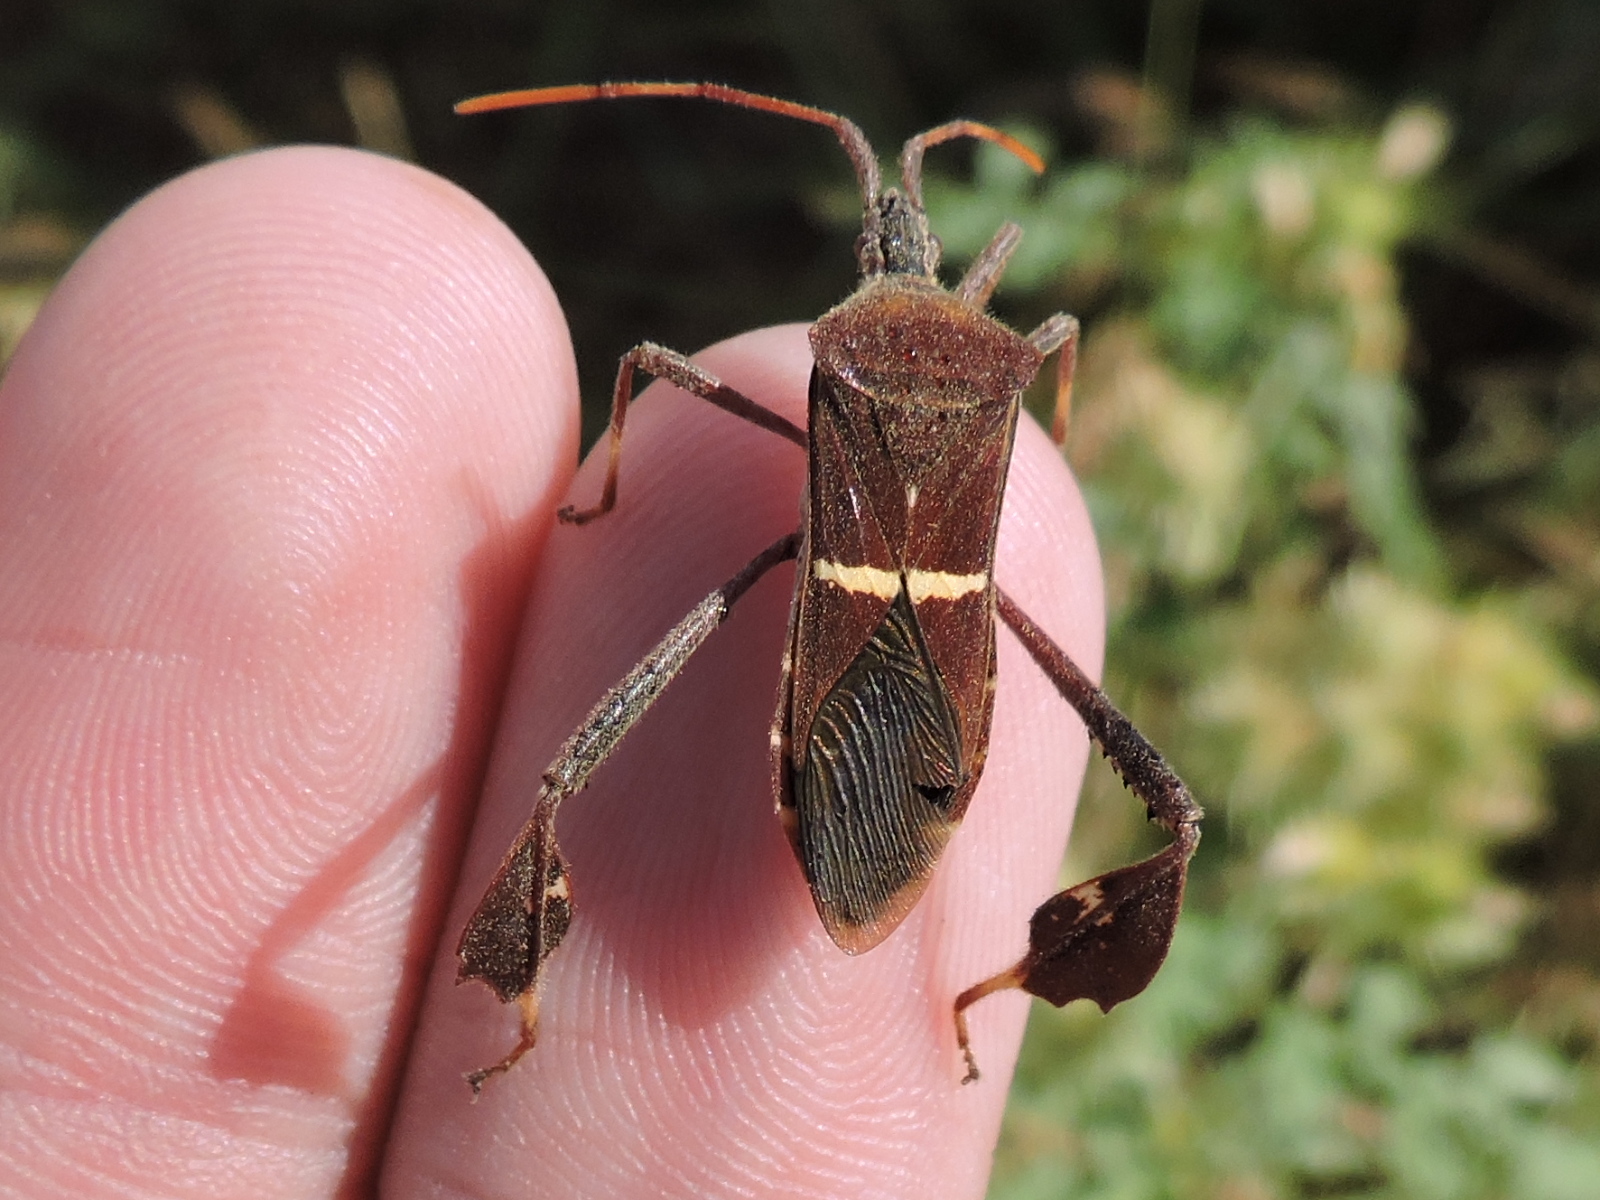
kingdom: Animalia
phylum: Arthropoda
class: Insecta
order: Hemiptera
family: Coreidae
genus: Leptoglossus
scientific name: Leptoglossus phyllopus
